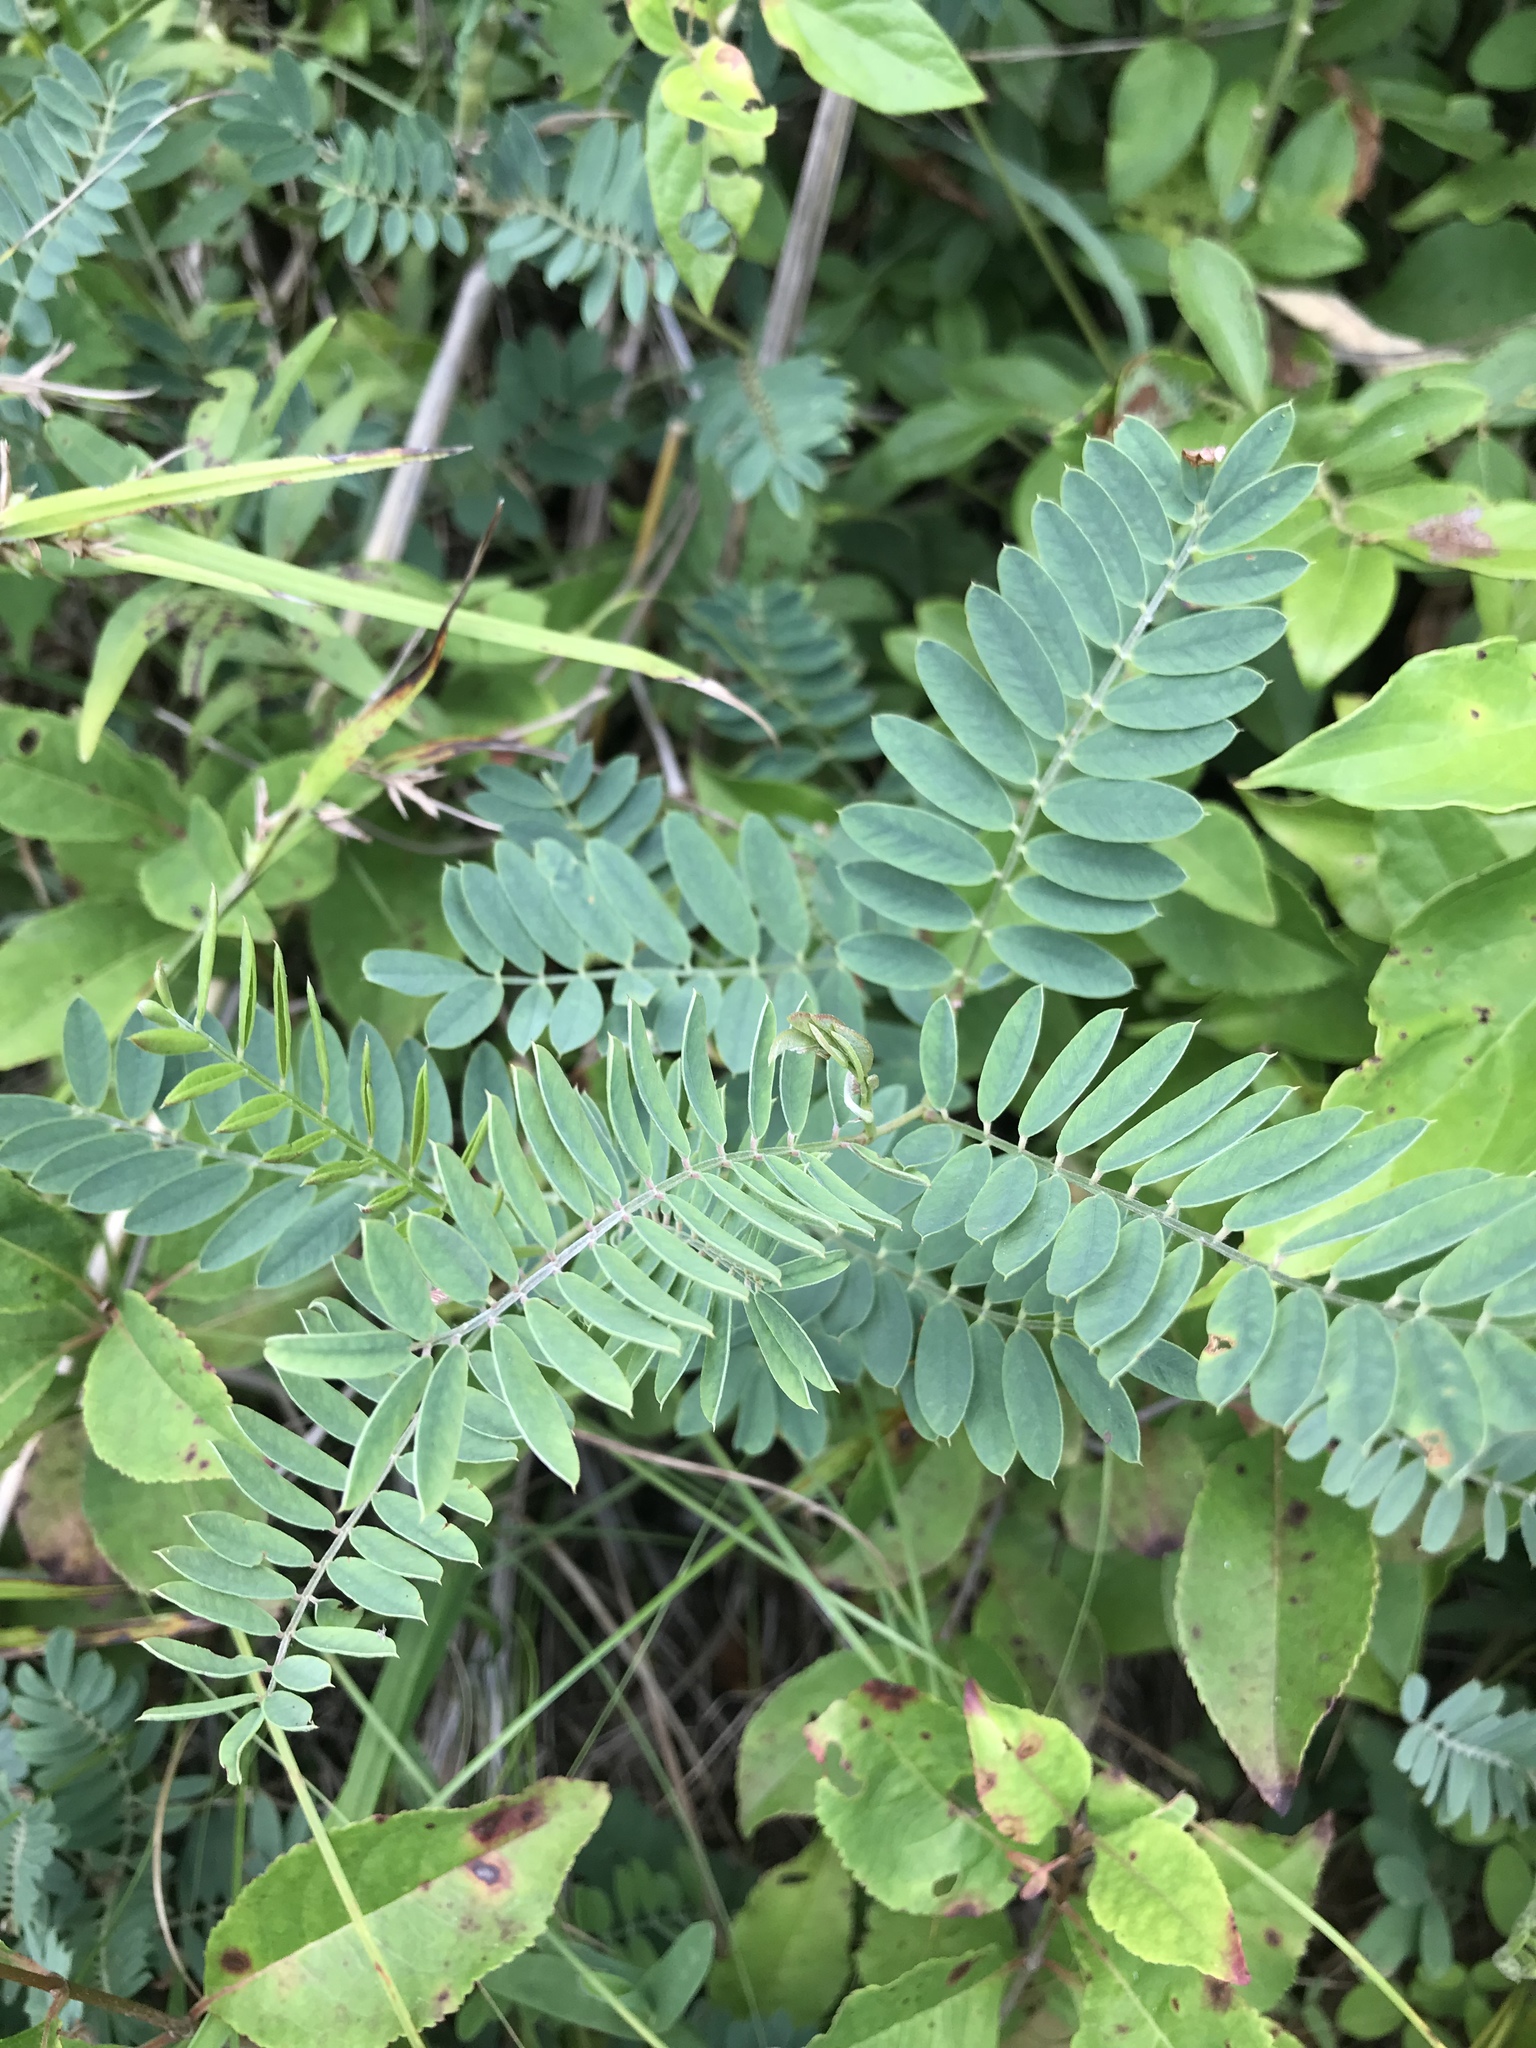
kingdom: Plantae
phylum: Tracheophyta
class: Magnoliopsida
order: Fabales
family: Fabaceae
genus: Tephrosia
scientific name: Tephrosia virginiana
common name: Rabbit-pea
